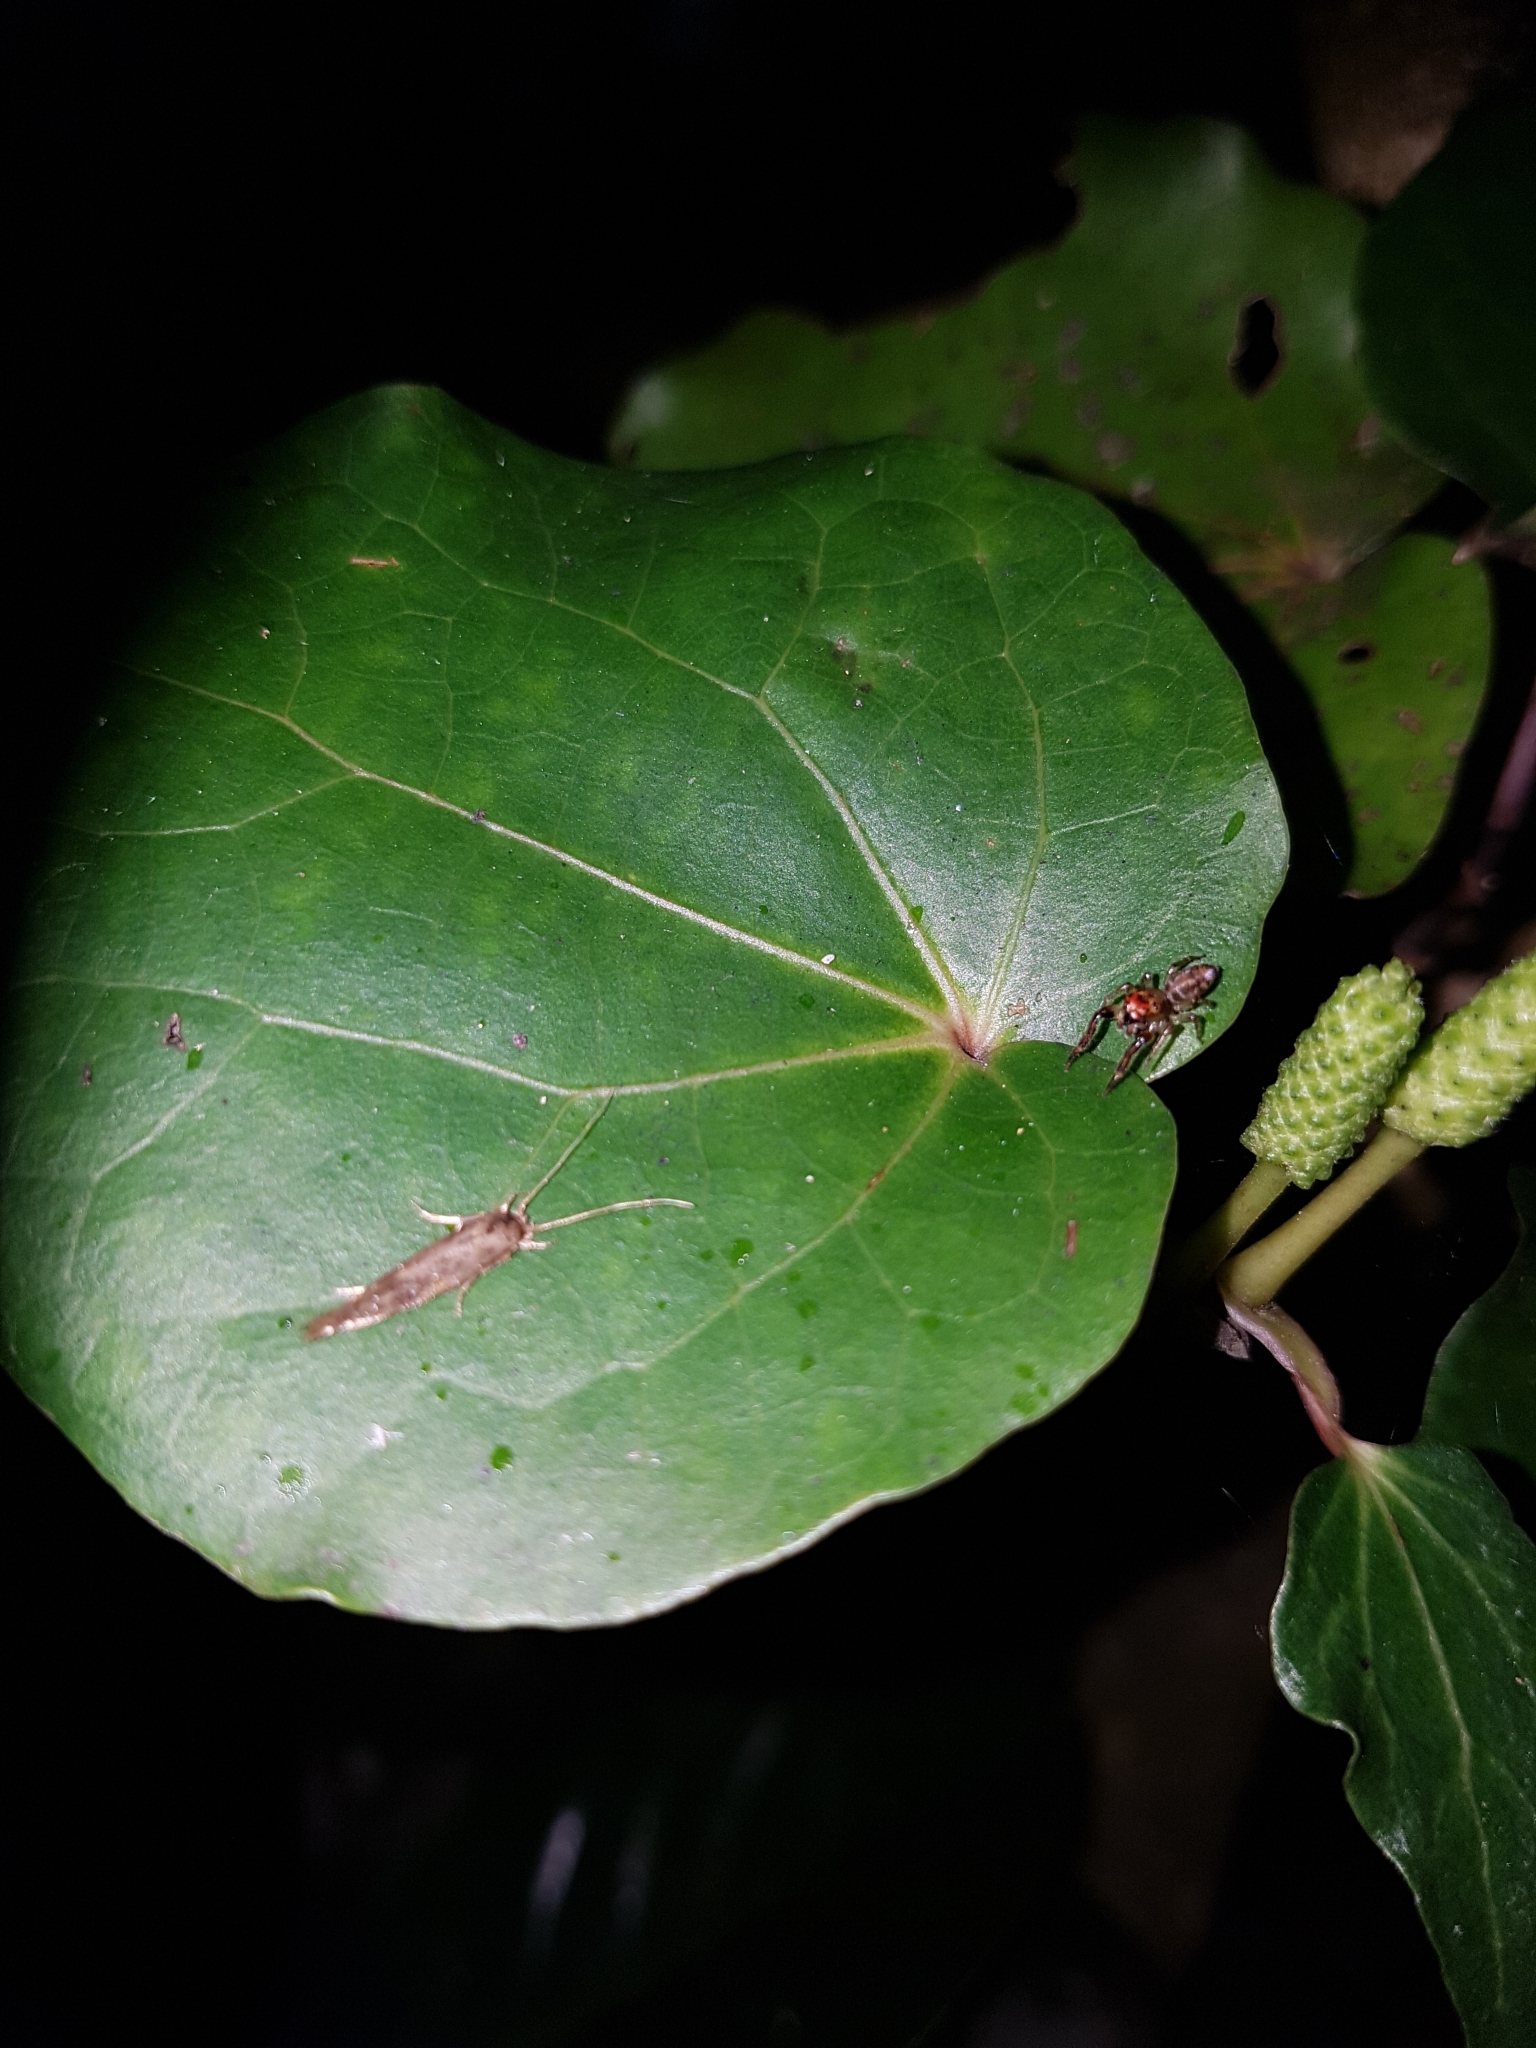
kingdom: Animalia
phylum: Arthropoda
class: Arachnida
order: Araneae
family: Salticidae
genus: Trite
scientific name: Trite mustilina
